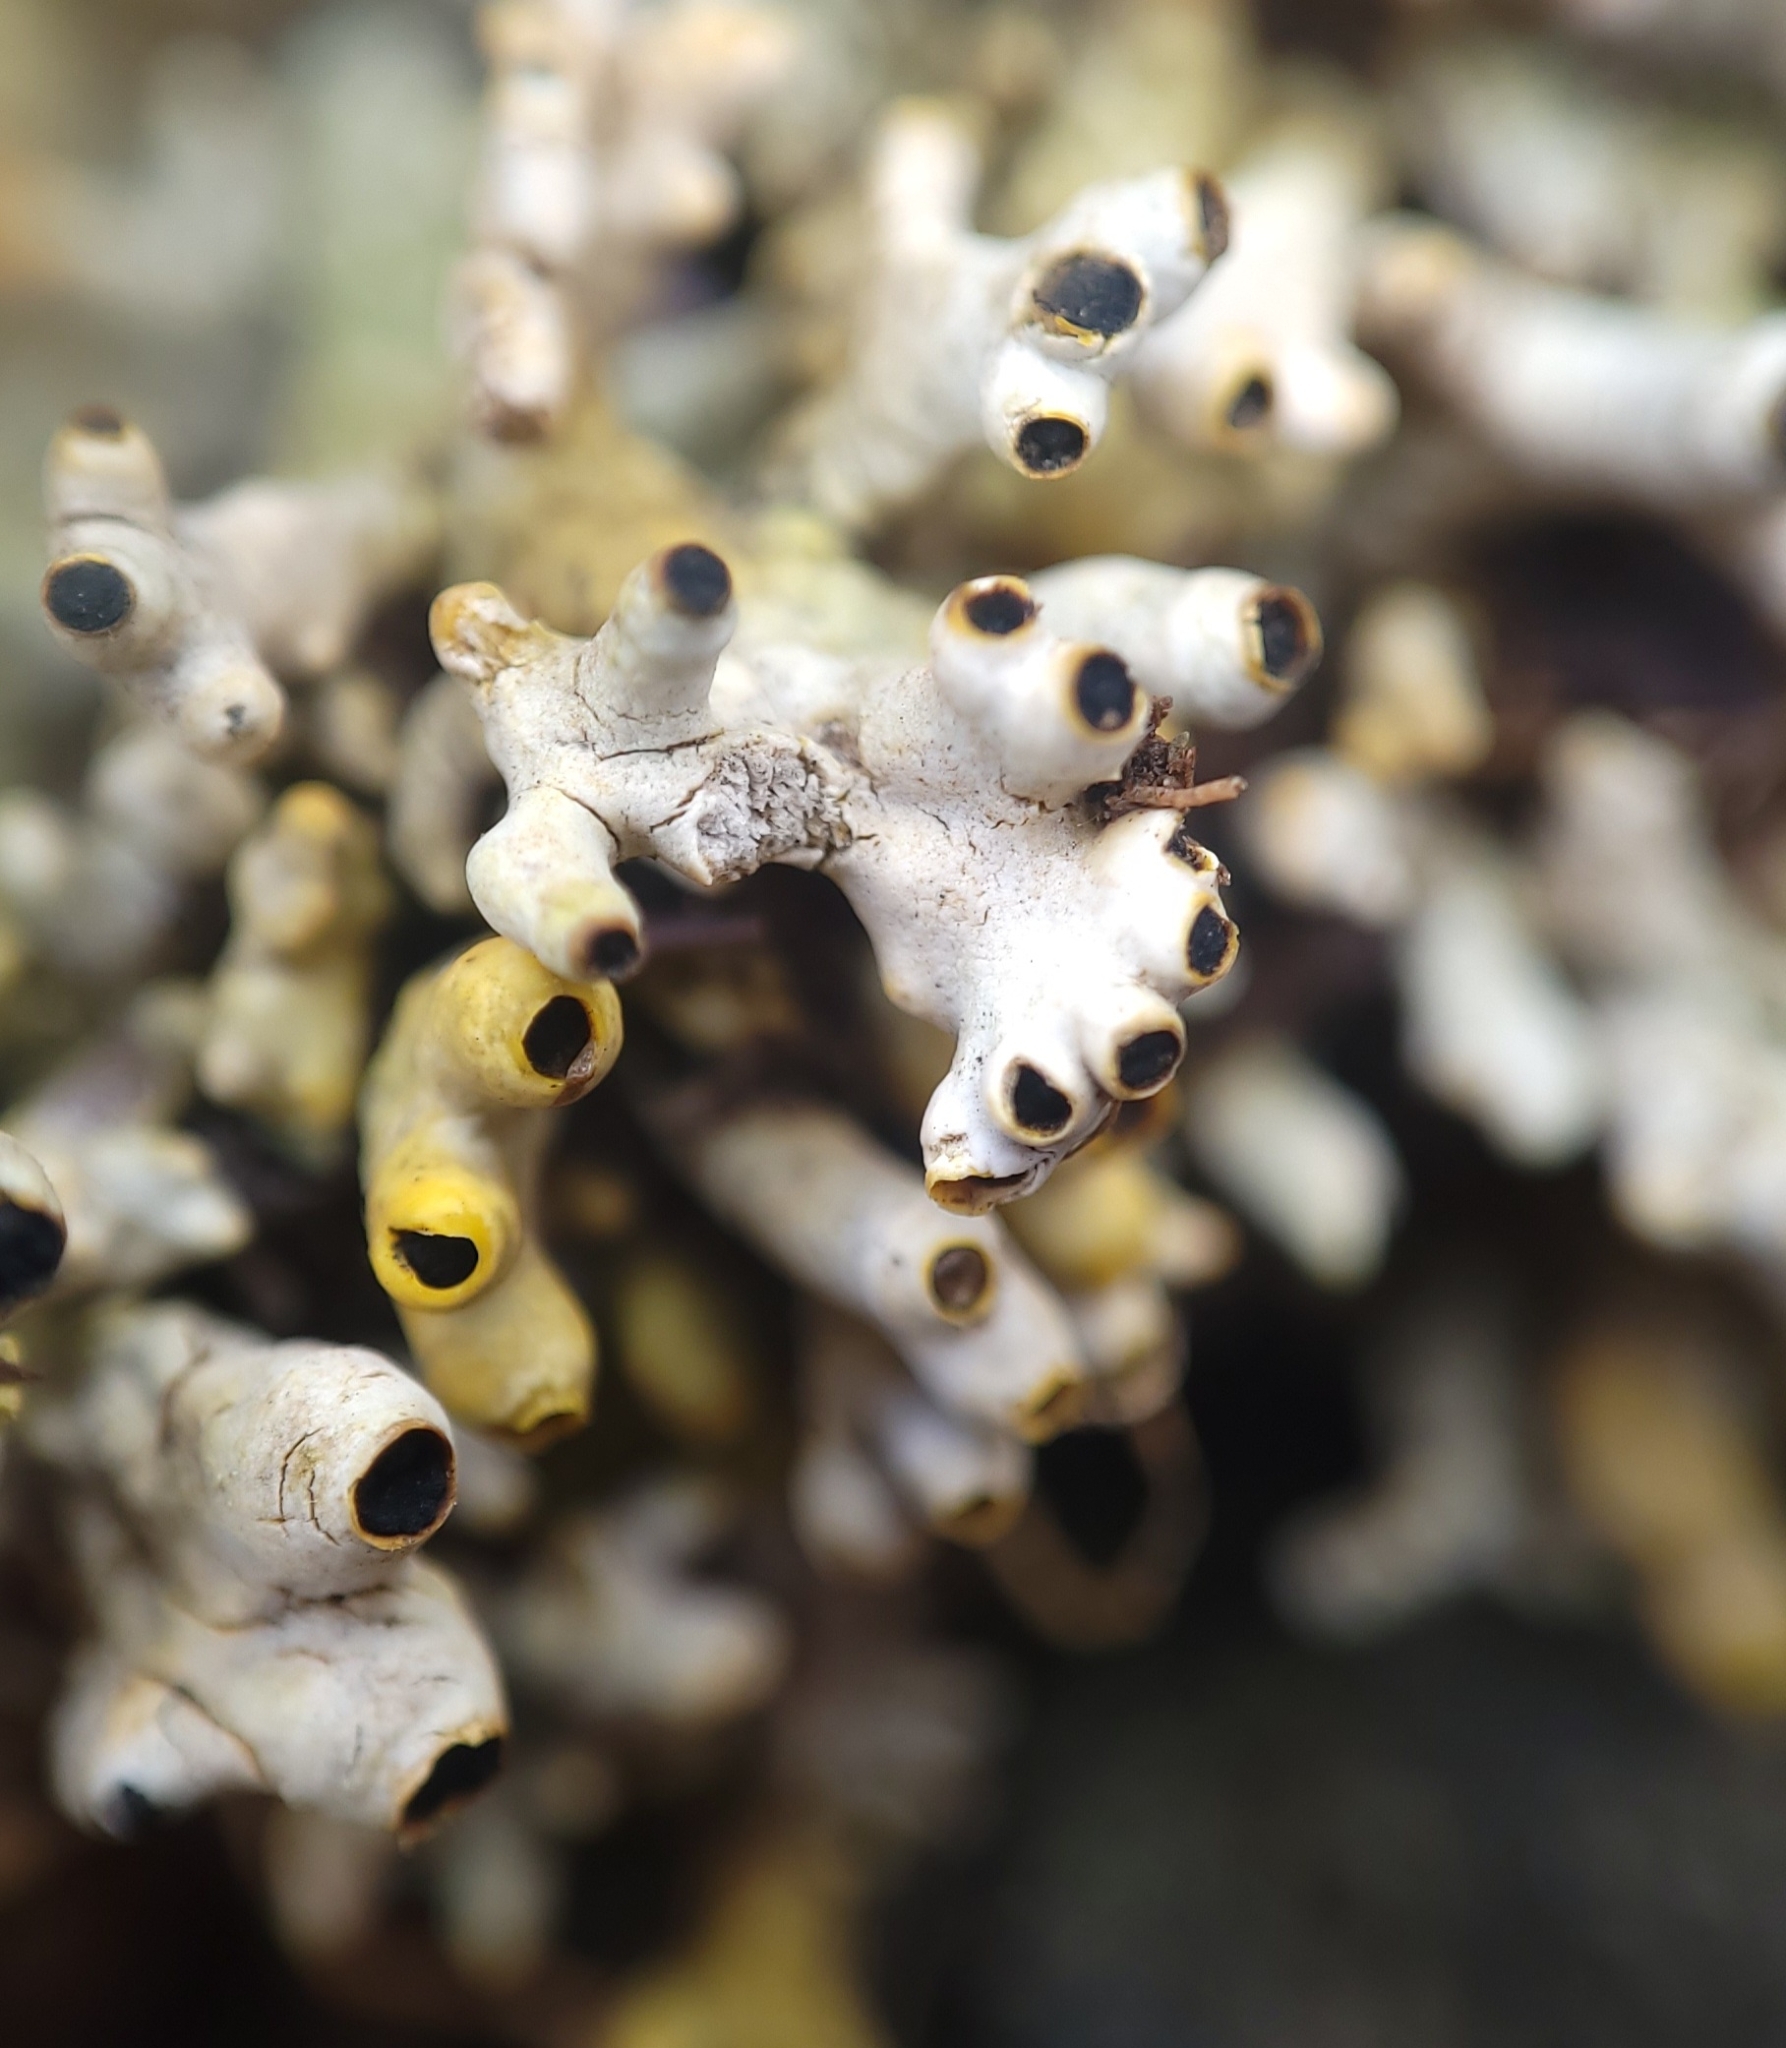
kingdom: Fungi
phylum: Ascomycota
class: Lecanoromycetes
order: Caliciales
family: Caliciaceae
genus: Acroscyphus
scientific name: Acroscyphus sphaerophoroides
